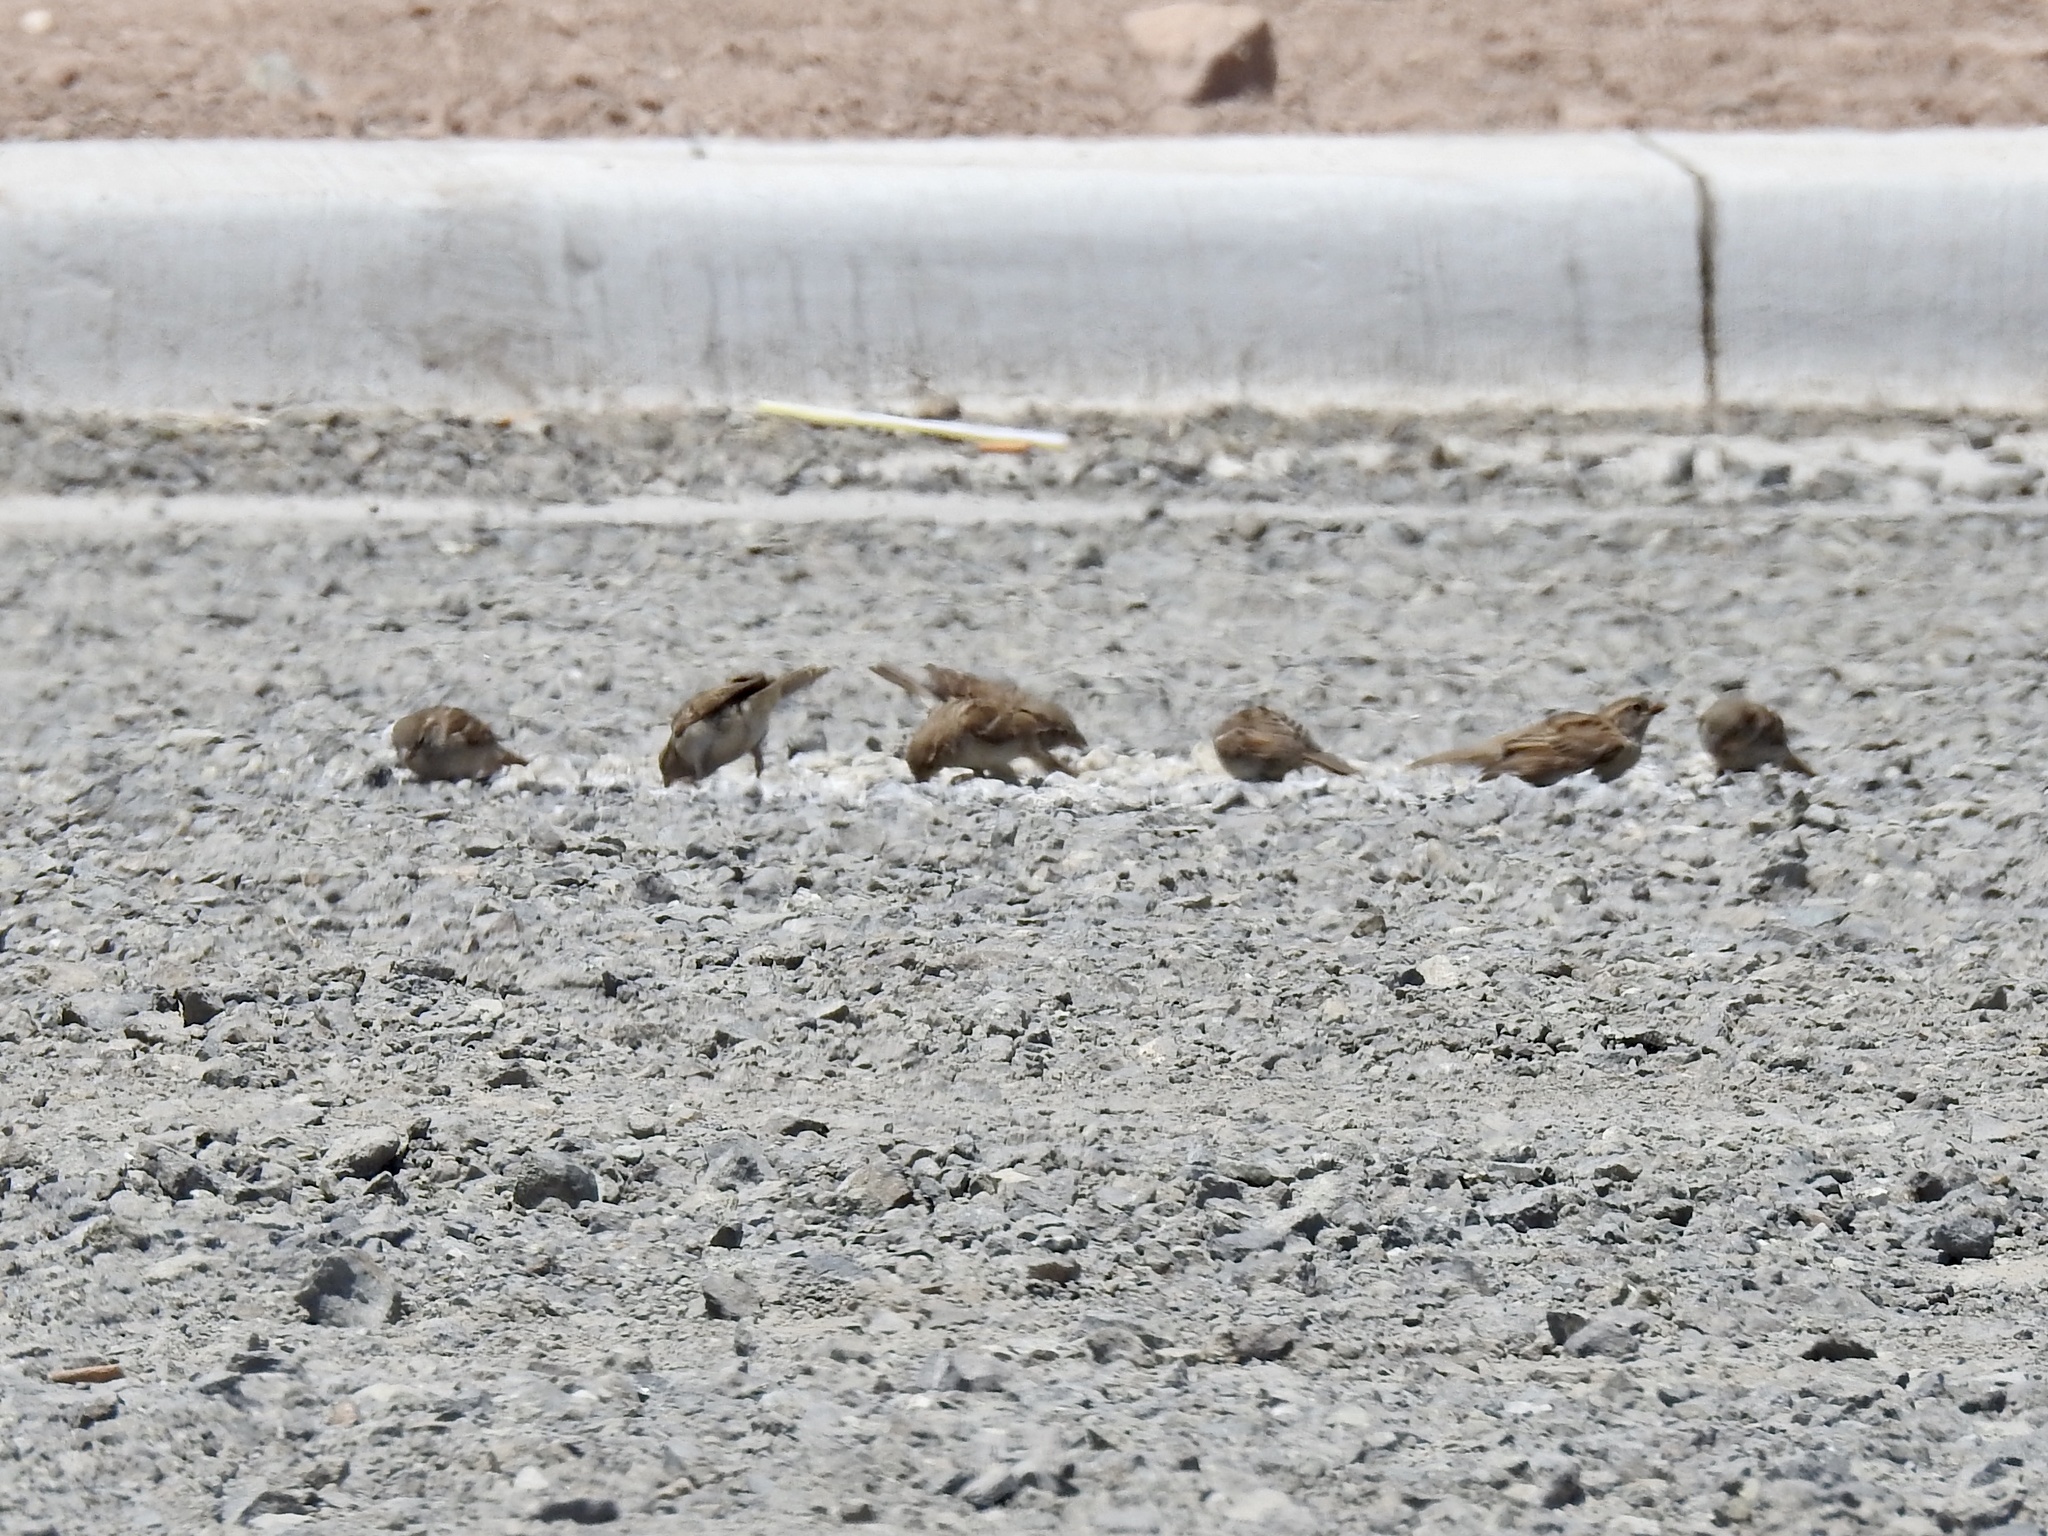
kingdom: Animalia
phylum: Chordata
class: Aves
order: Passeriformes
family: Passeridae
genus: Passer
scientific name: Passer domesticus
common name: House sparrow
